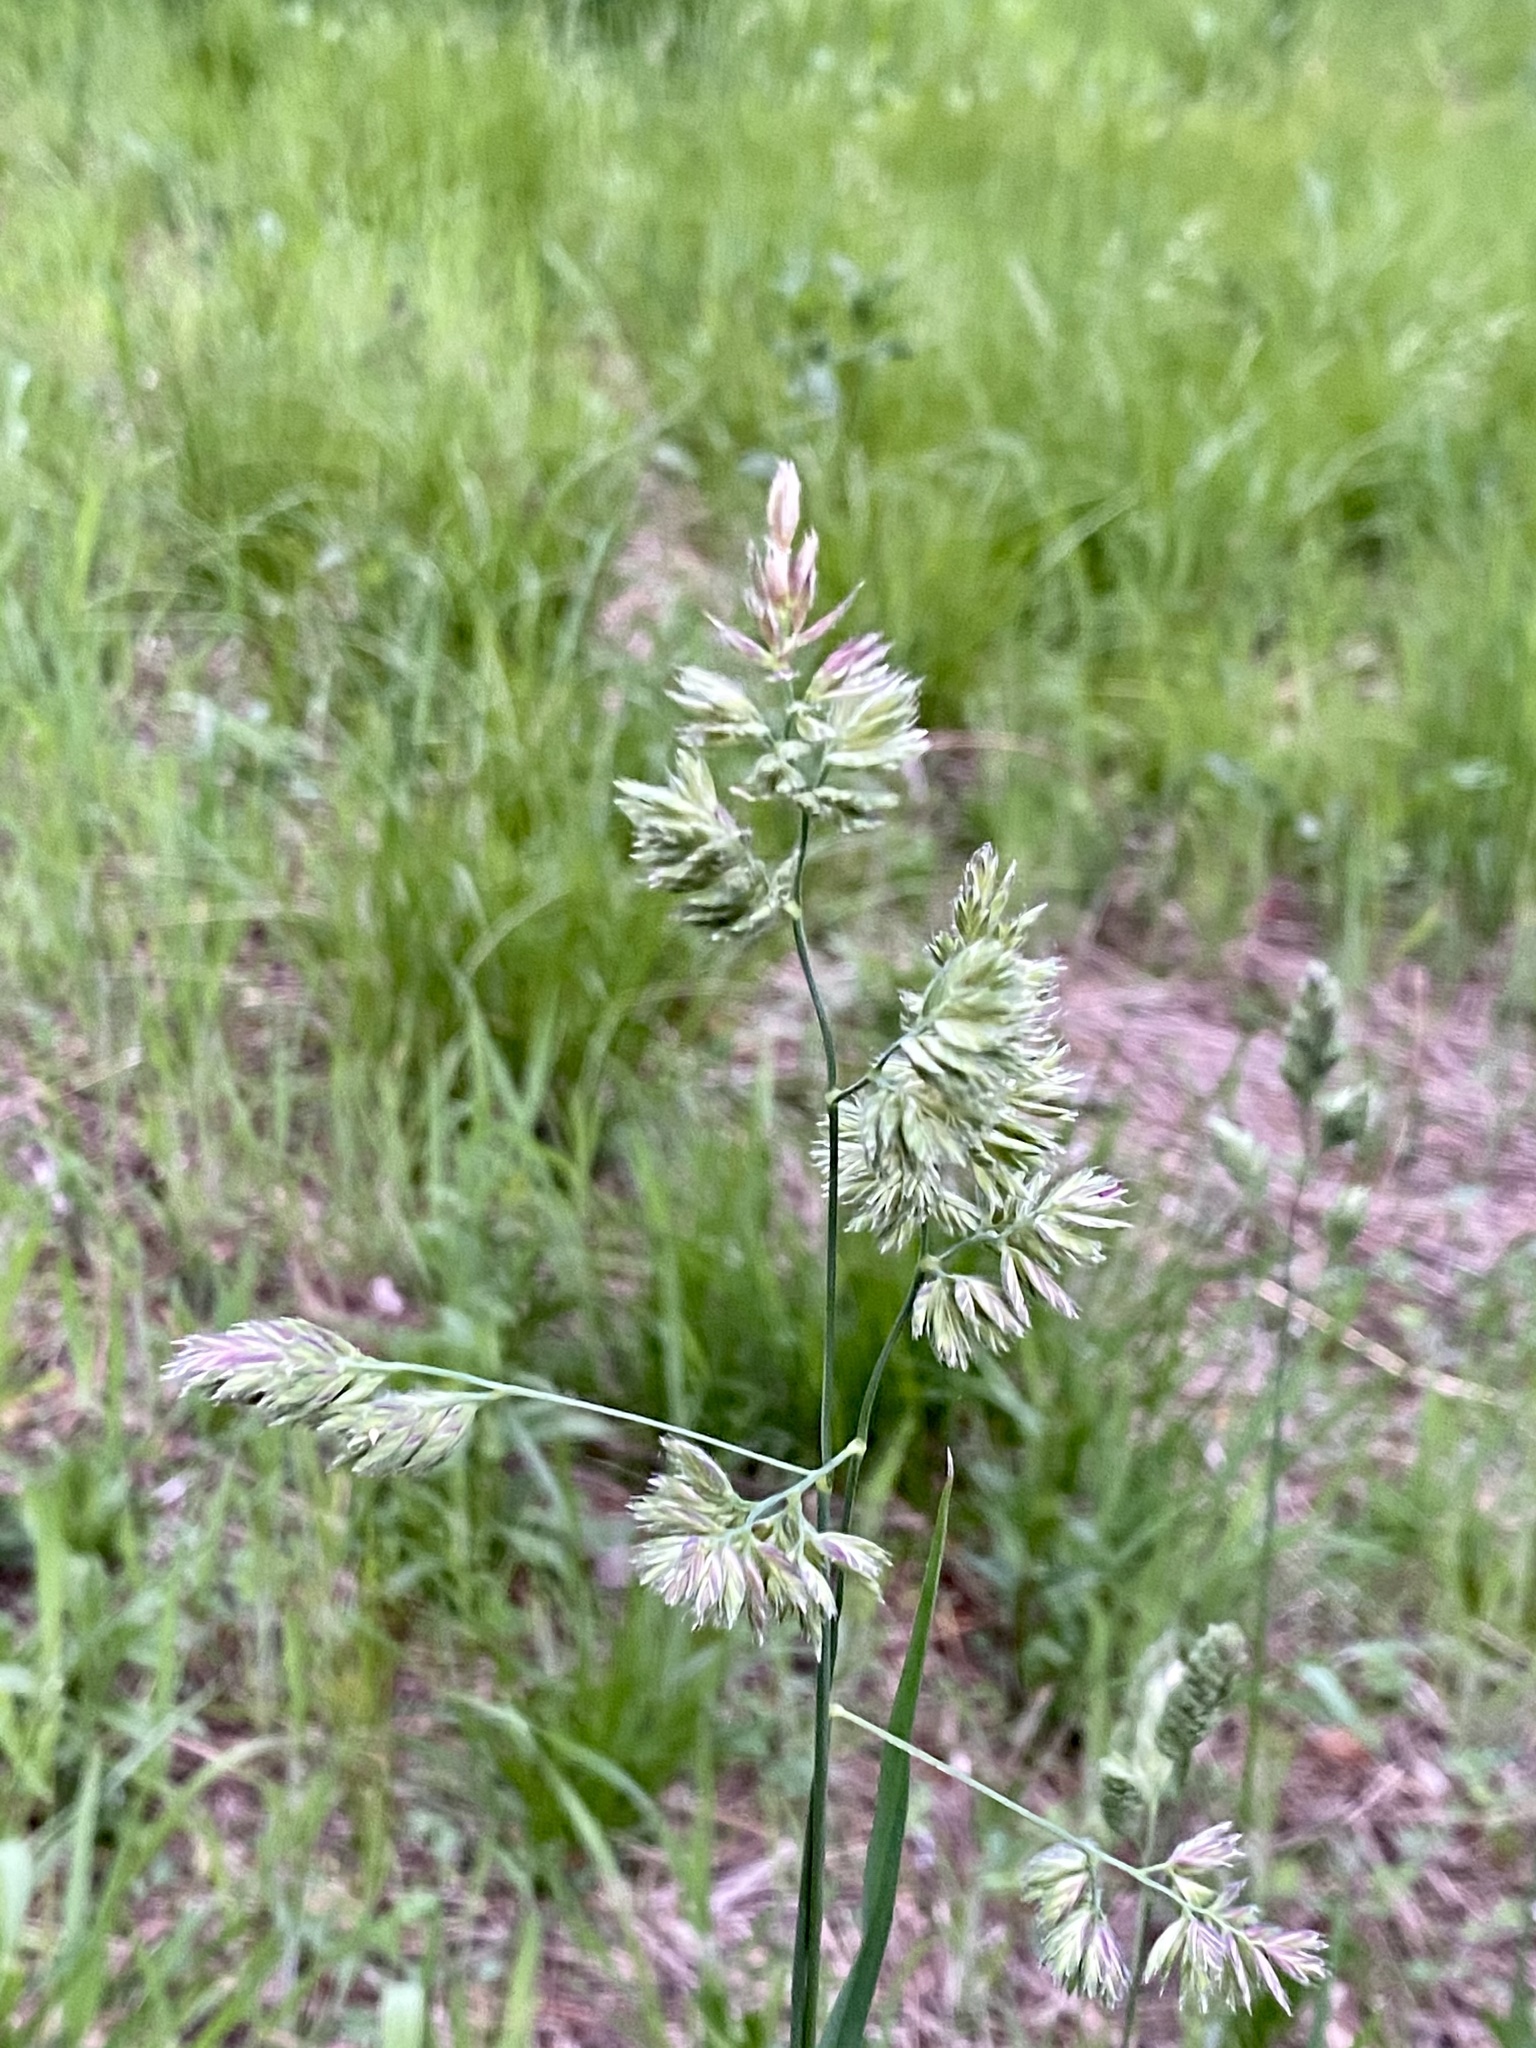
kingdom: Plantae
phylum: Tracheophyta
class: Liliopsida
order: Poales
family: Poaceae
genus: Dactylis
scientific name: Dactylis glomerata
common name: Orchardgrass
